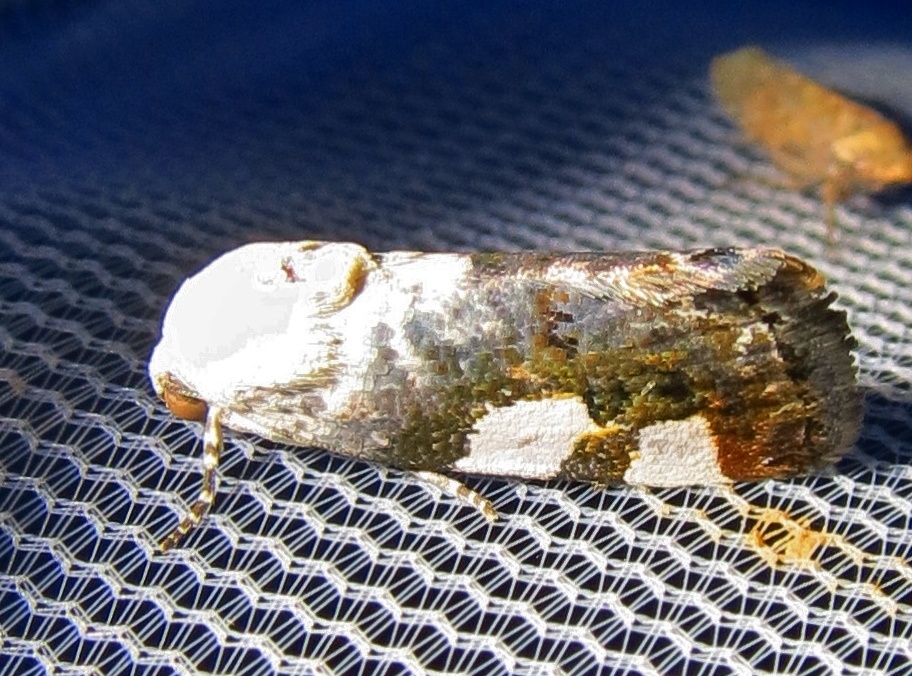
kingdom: Animalia
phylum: Arthropoda
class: Insecta
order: Lepidoptera
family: Noctuidae
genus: Acontia
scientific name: Acontia quadriplaga
